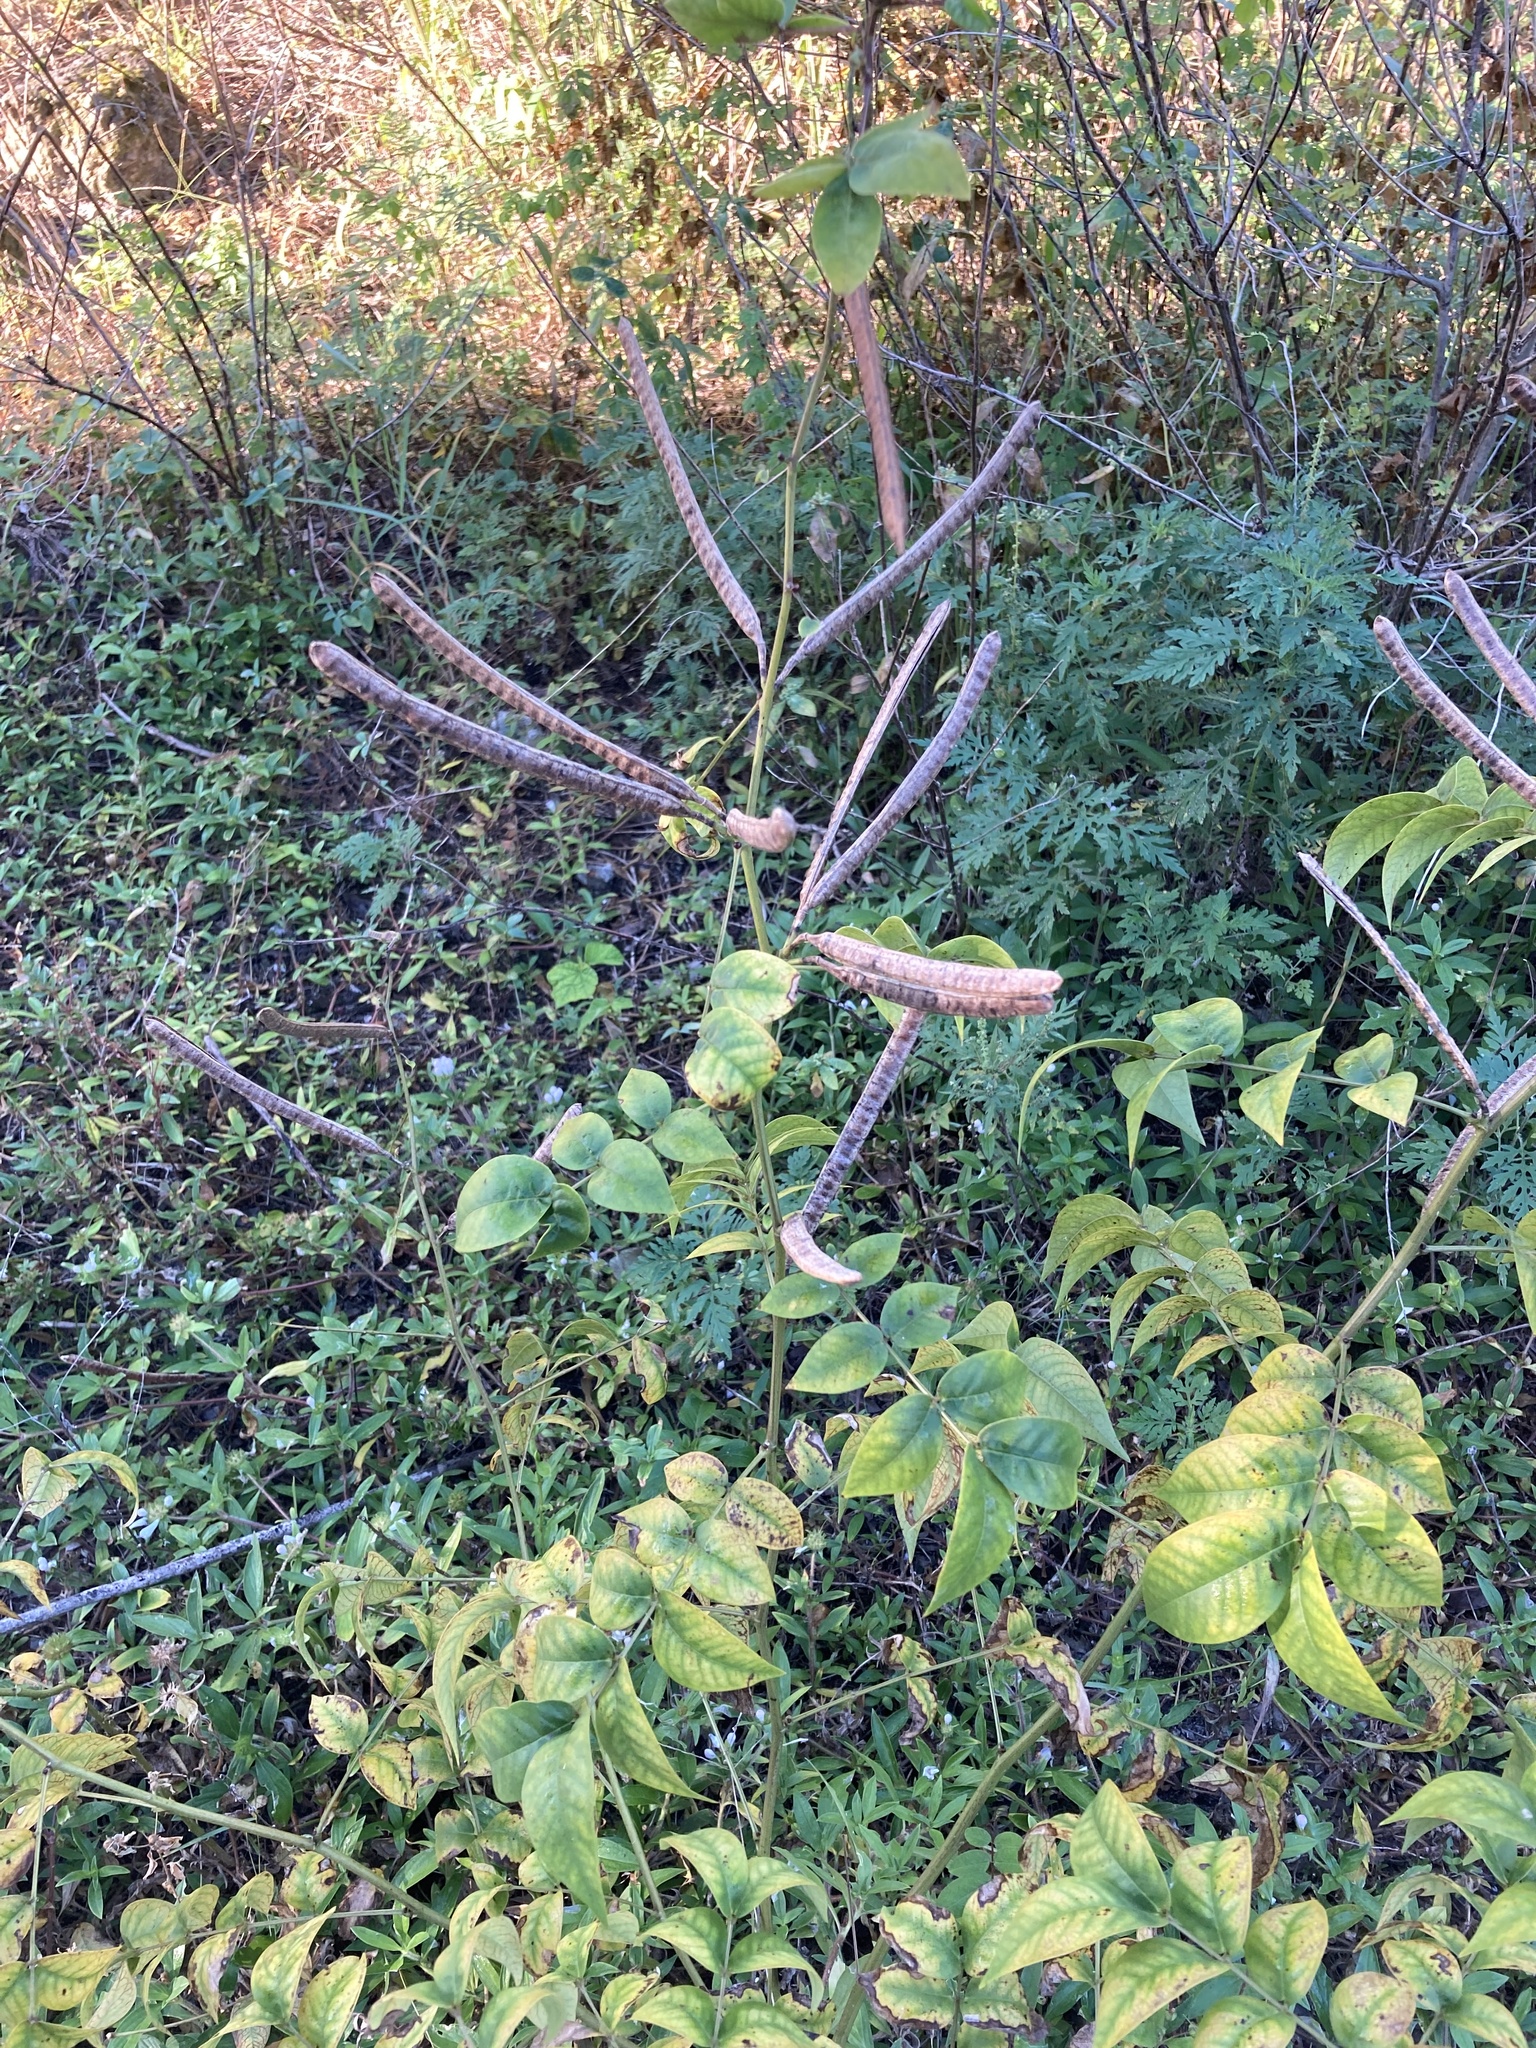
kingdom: Plantae
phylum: Tracheophyta
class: Magnoliopsida
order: Fabales
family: Fabaceae
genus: Senna
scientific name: Senna occidentalis
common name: Septicweed
